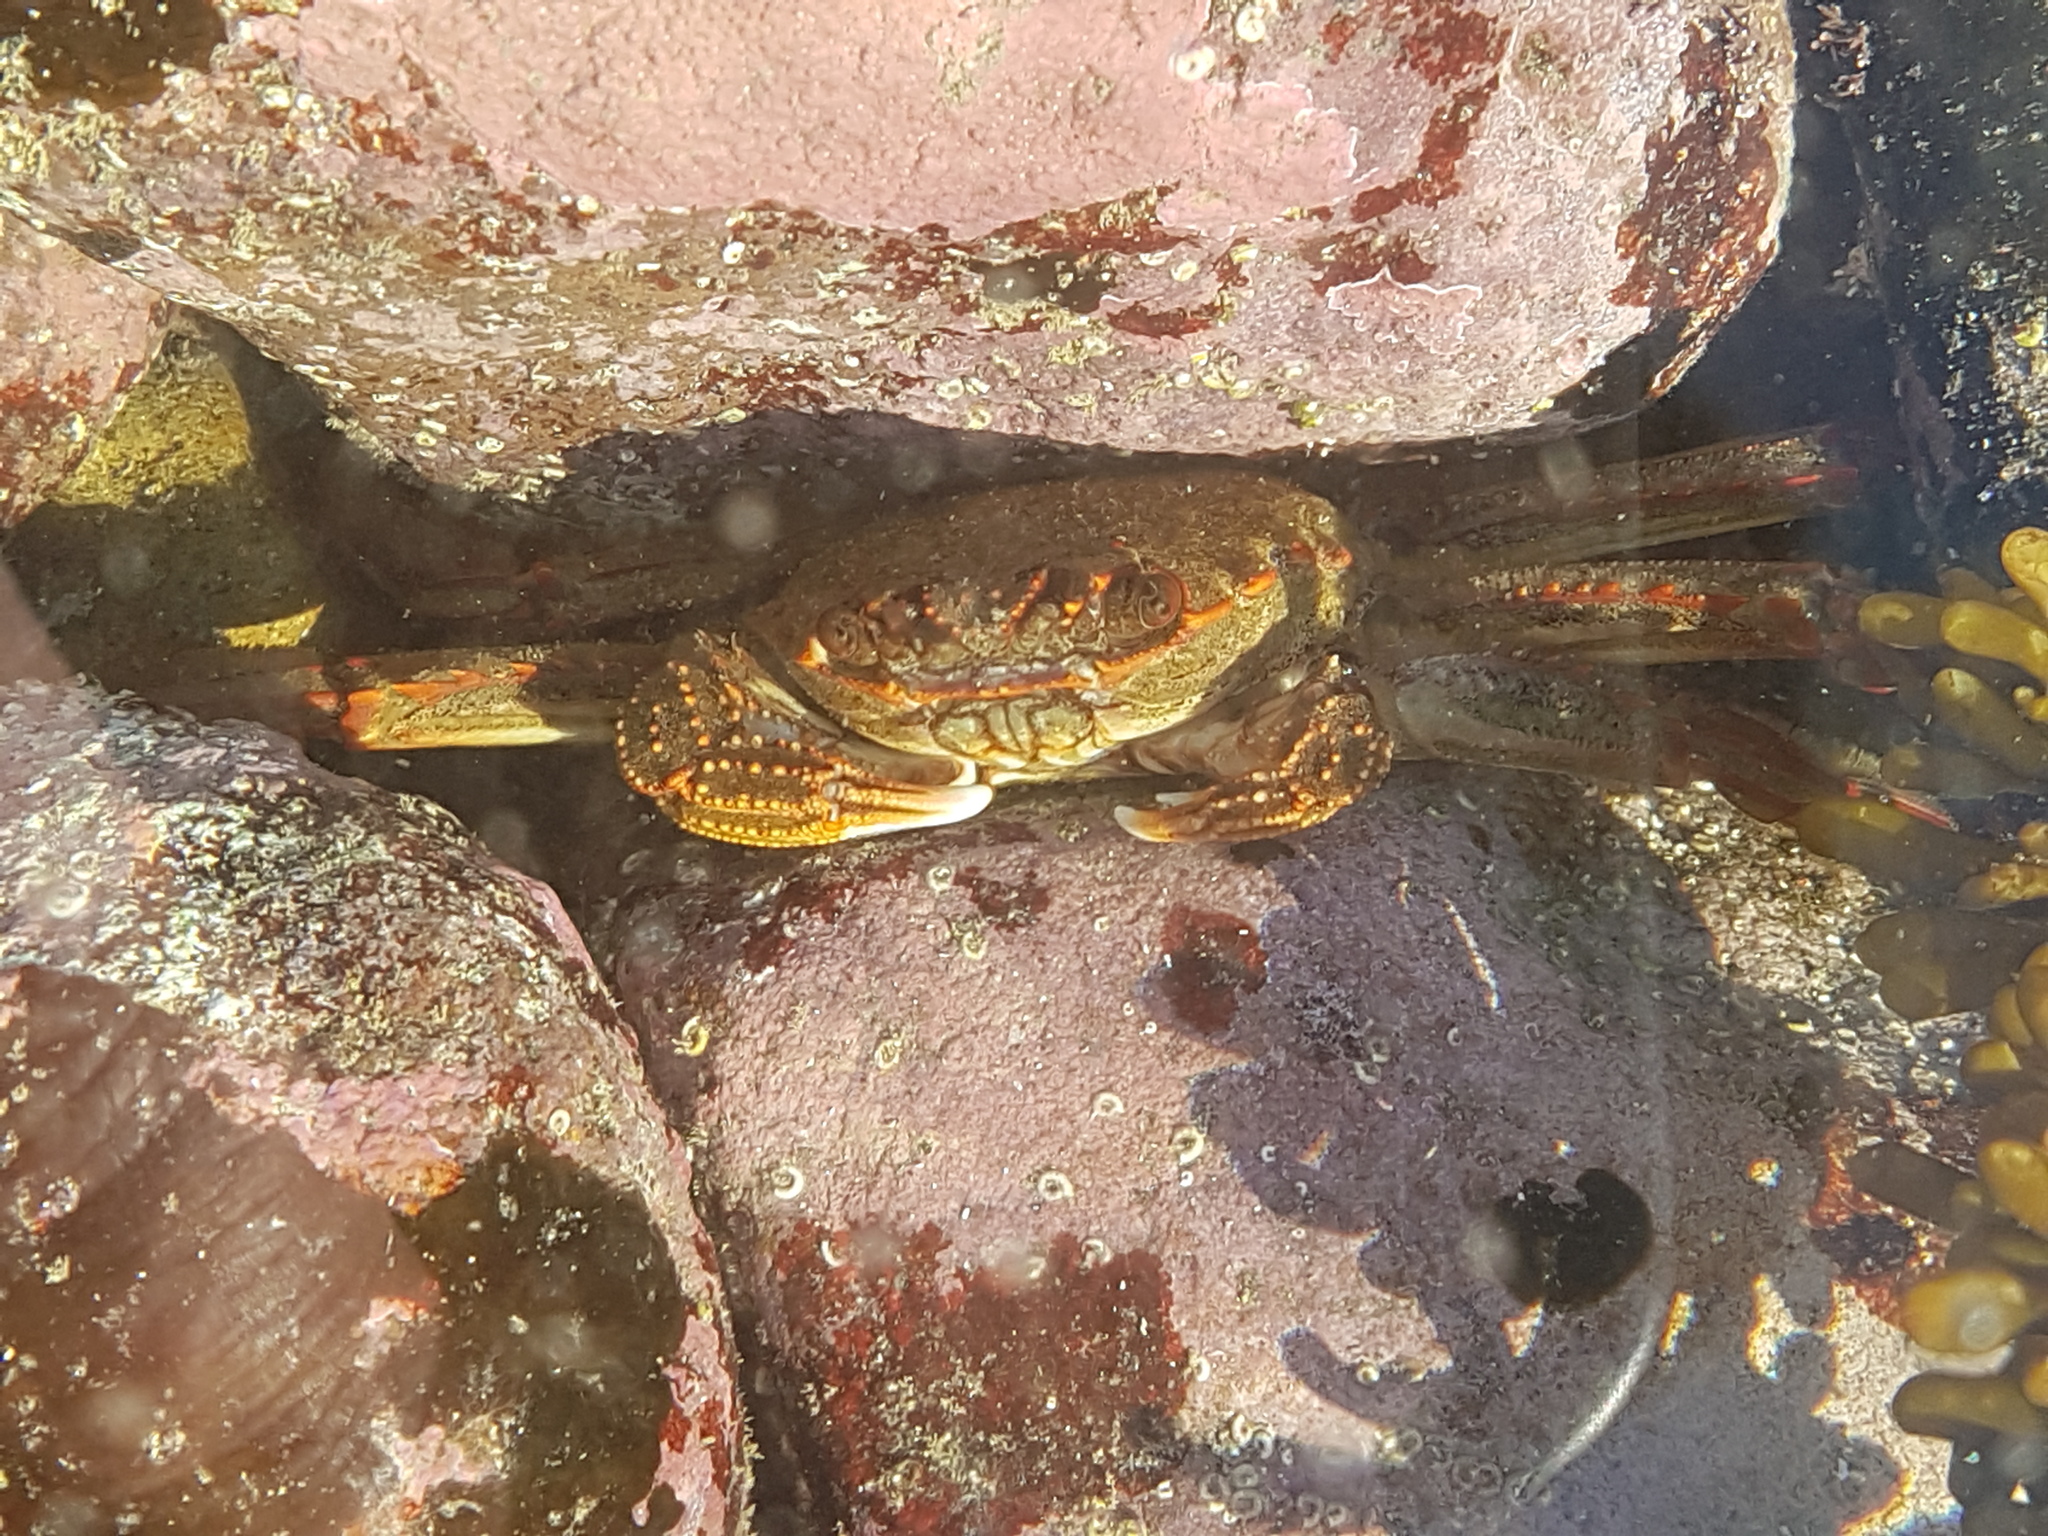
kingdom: Animalia
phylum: Arthropoda
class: Malacostraca
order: Decapoda
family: Plagusiidae
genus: Guinusia
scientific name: Guinusia chabrus
